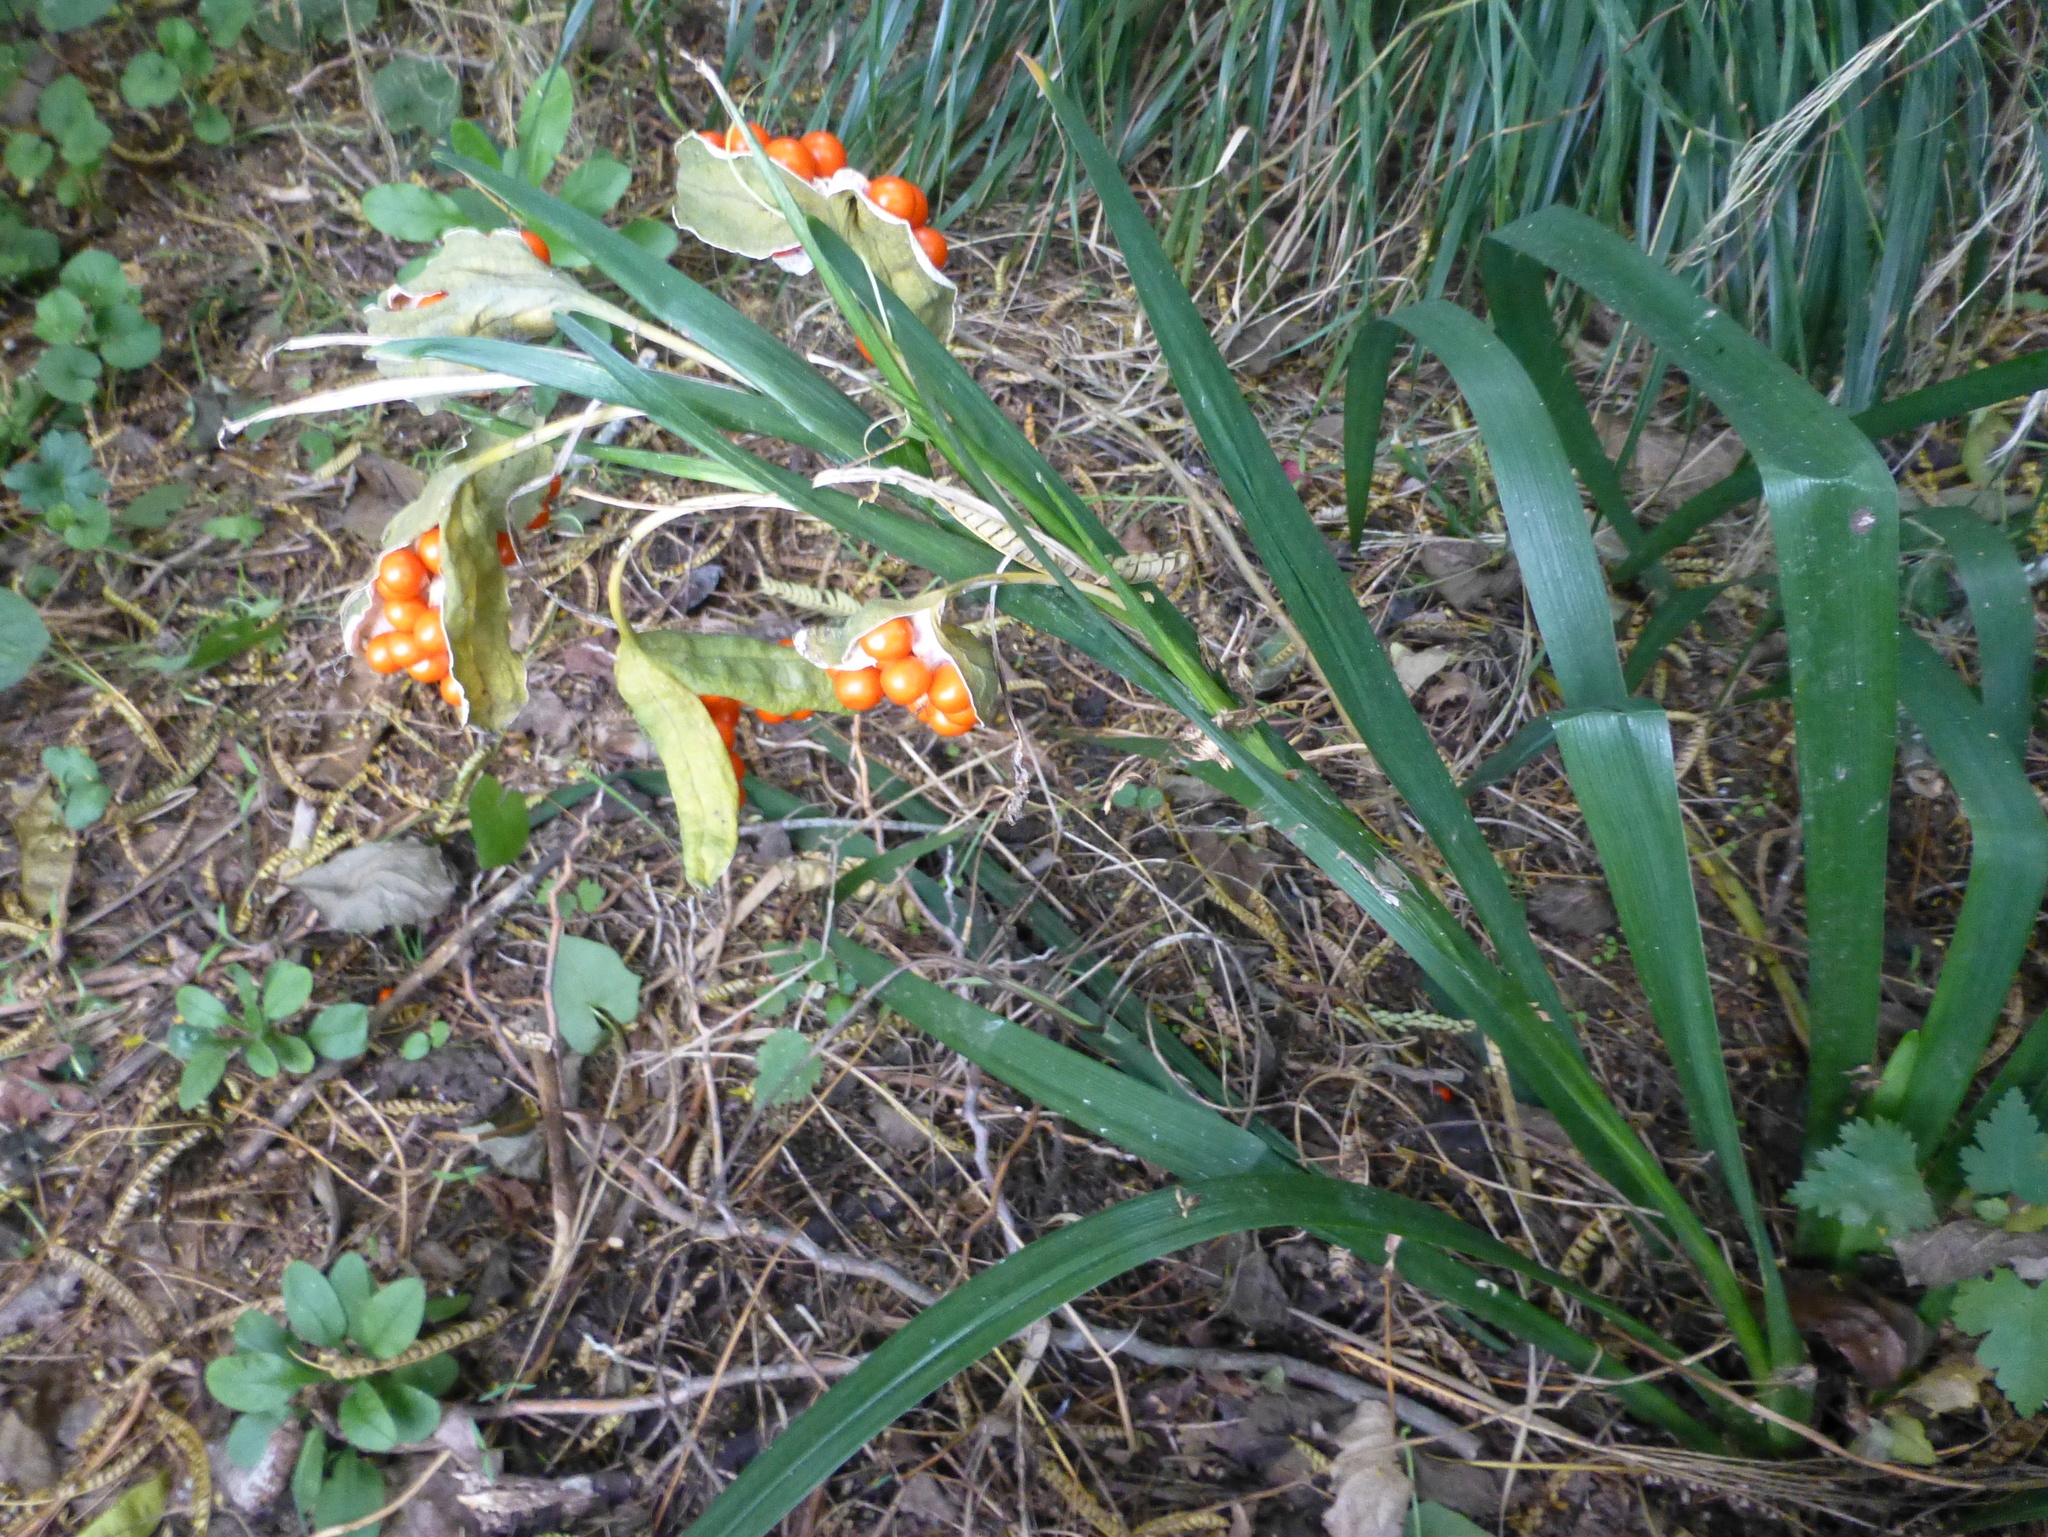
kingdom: Plantae
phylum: Tracheophyta
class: Liliopsida
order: Asparagales
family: Iridaceae
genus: Iris
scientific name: Iris foetidissima
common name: Stinking iris
